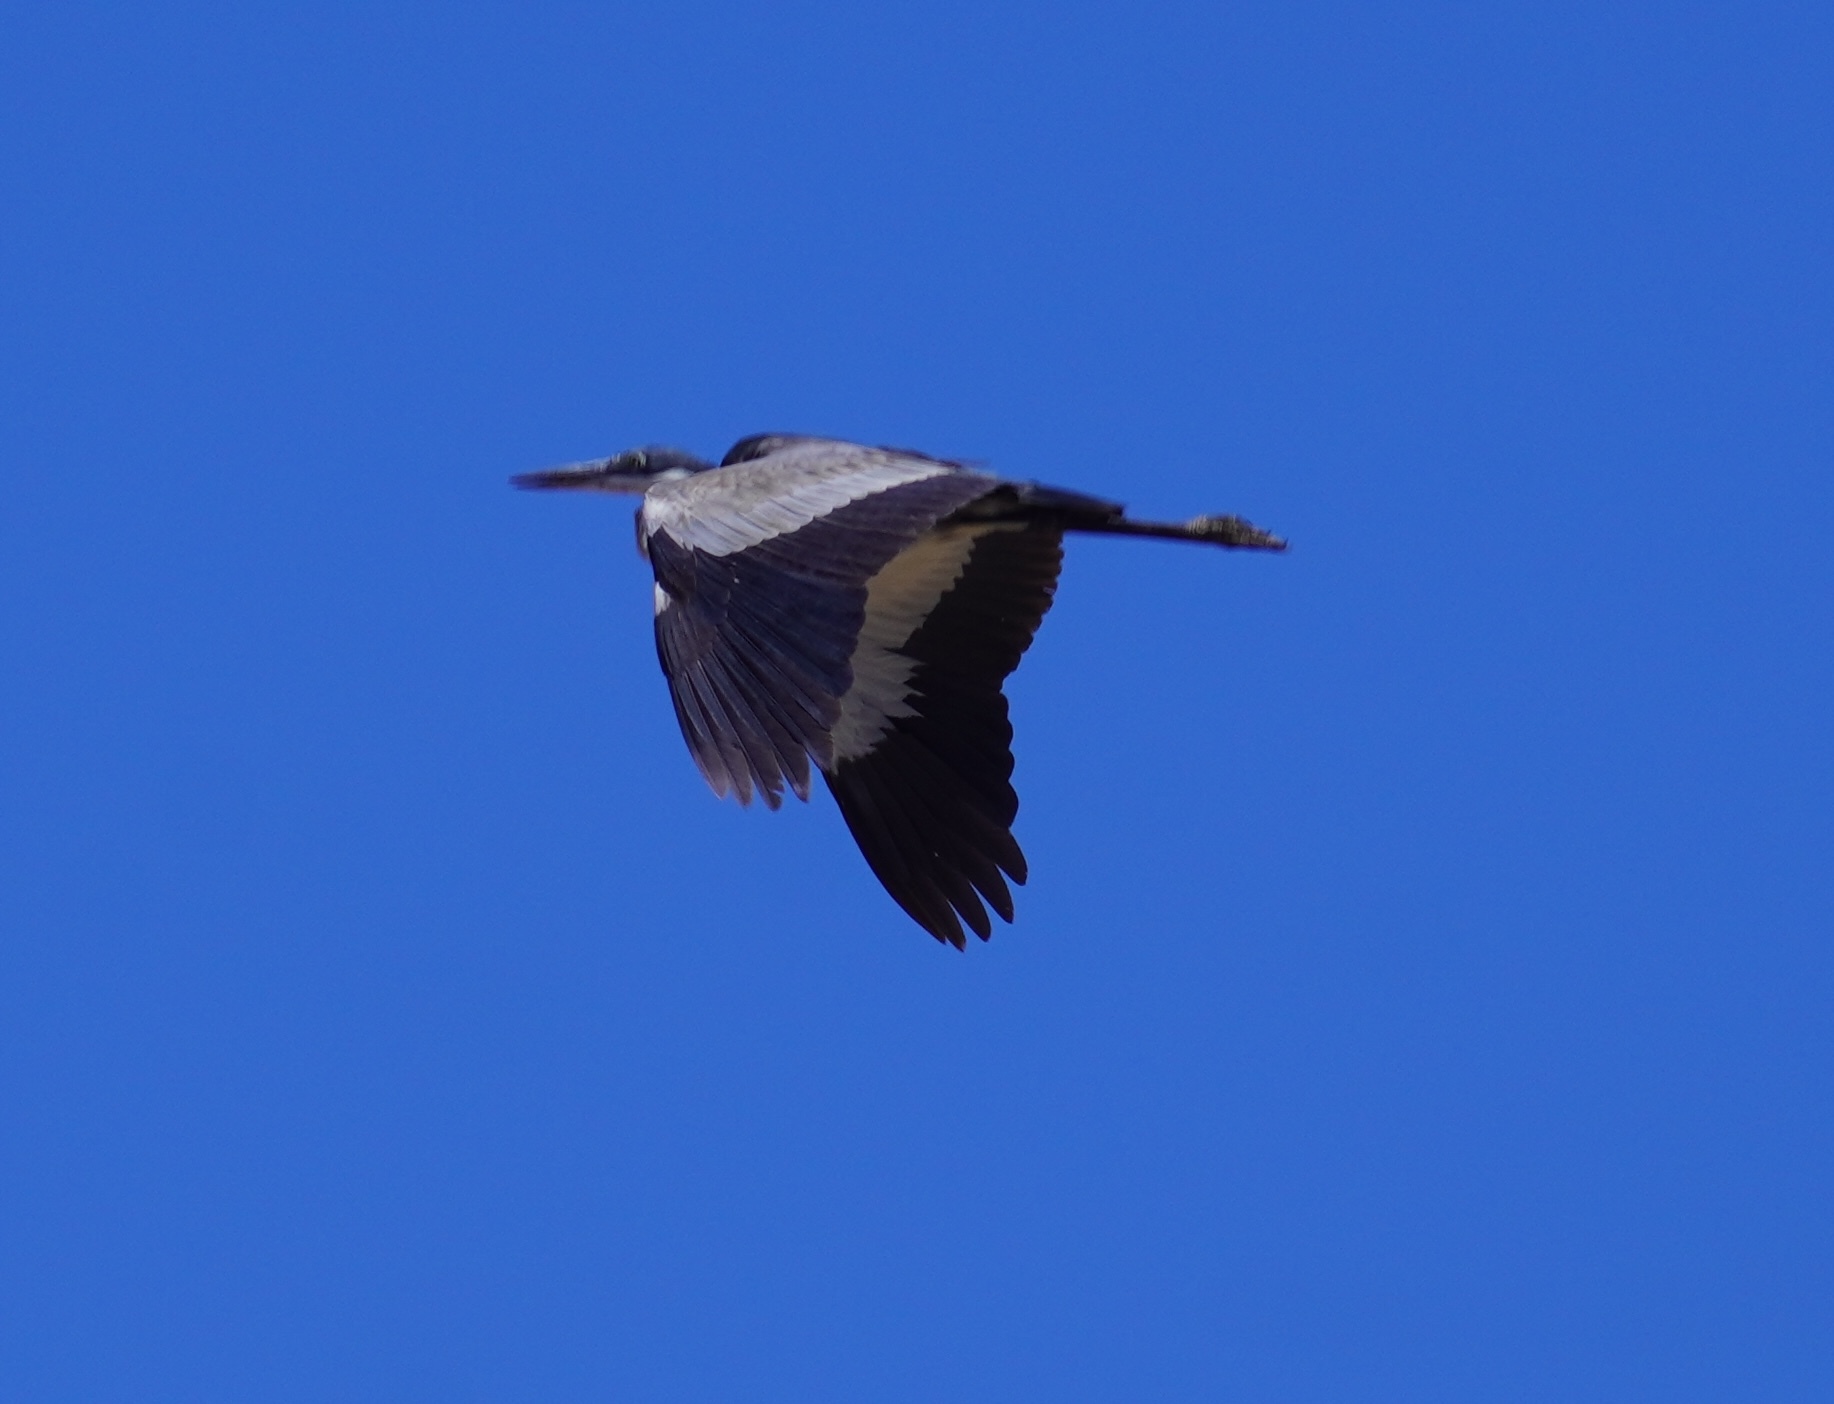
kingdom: Animalia
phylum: Chordata
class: Aves
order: Pelecaniformes
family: Ardeidae
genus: Ardea
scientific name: Ardea melanocephala
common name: Black-headed heron
